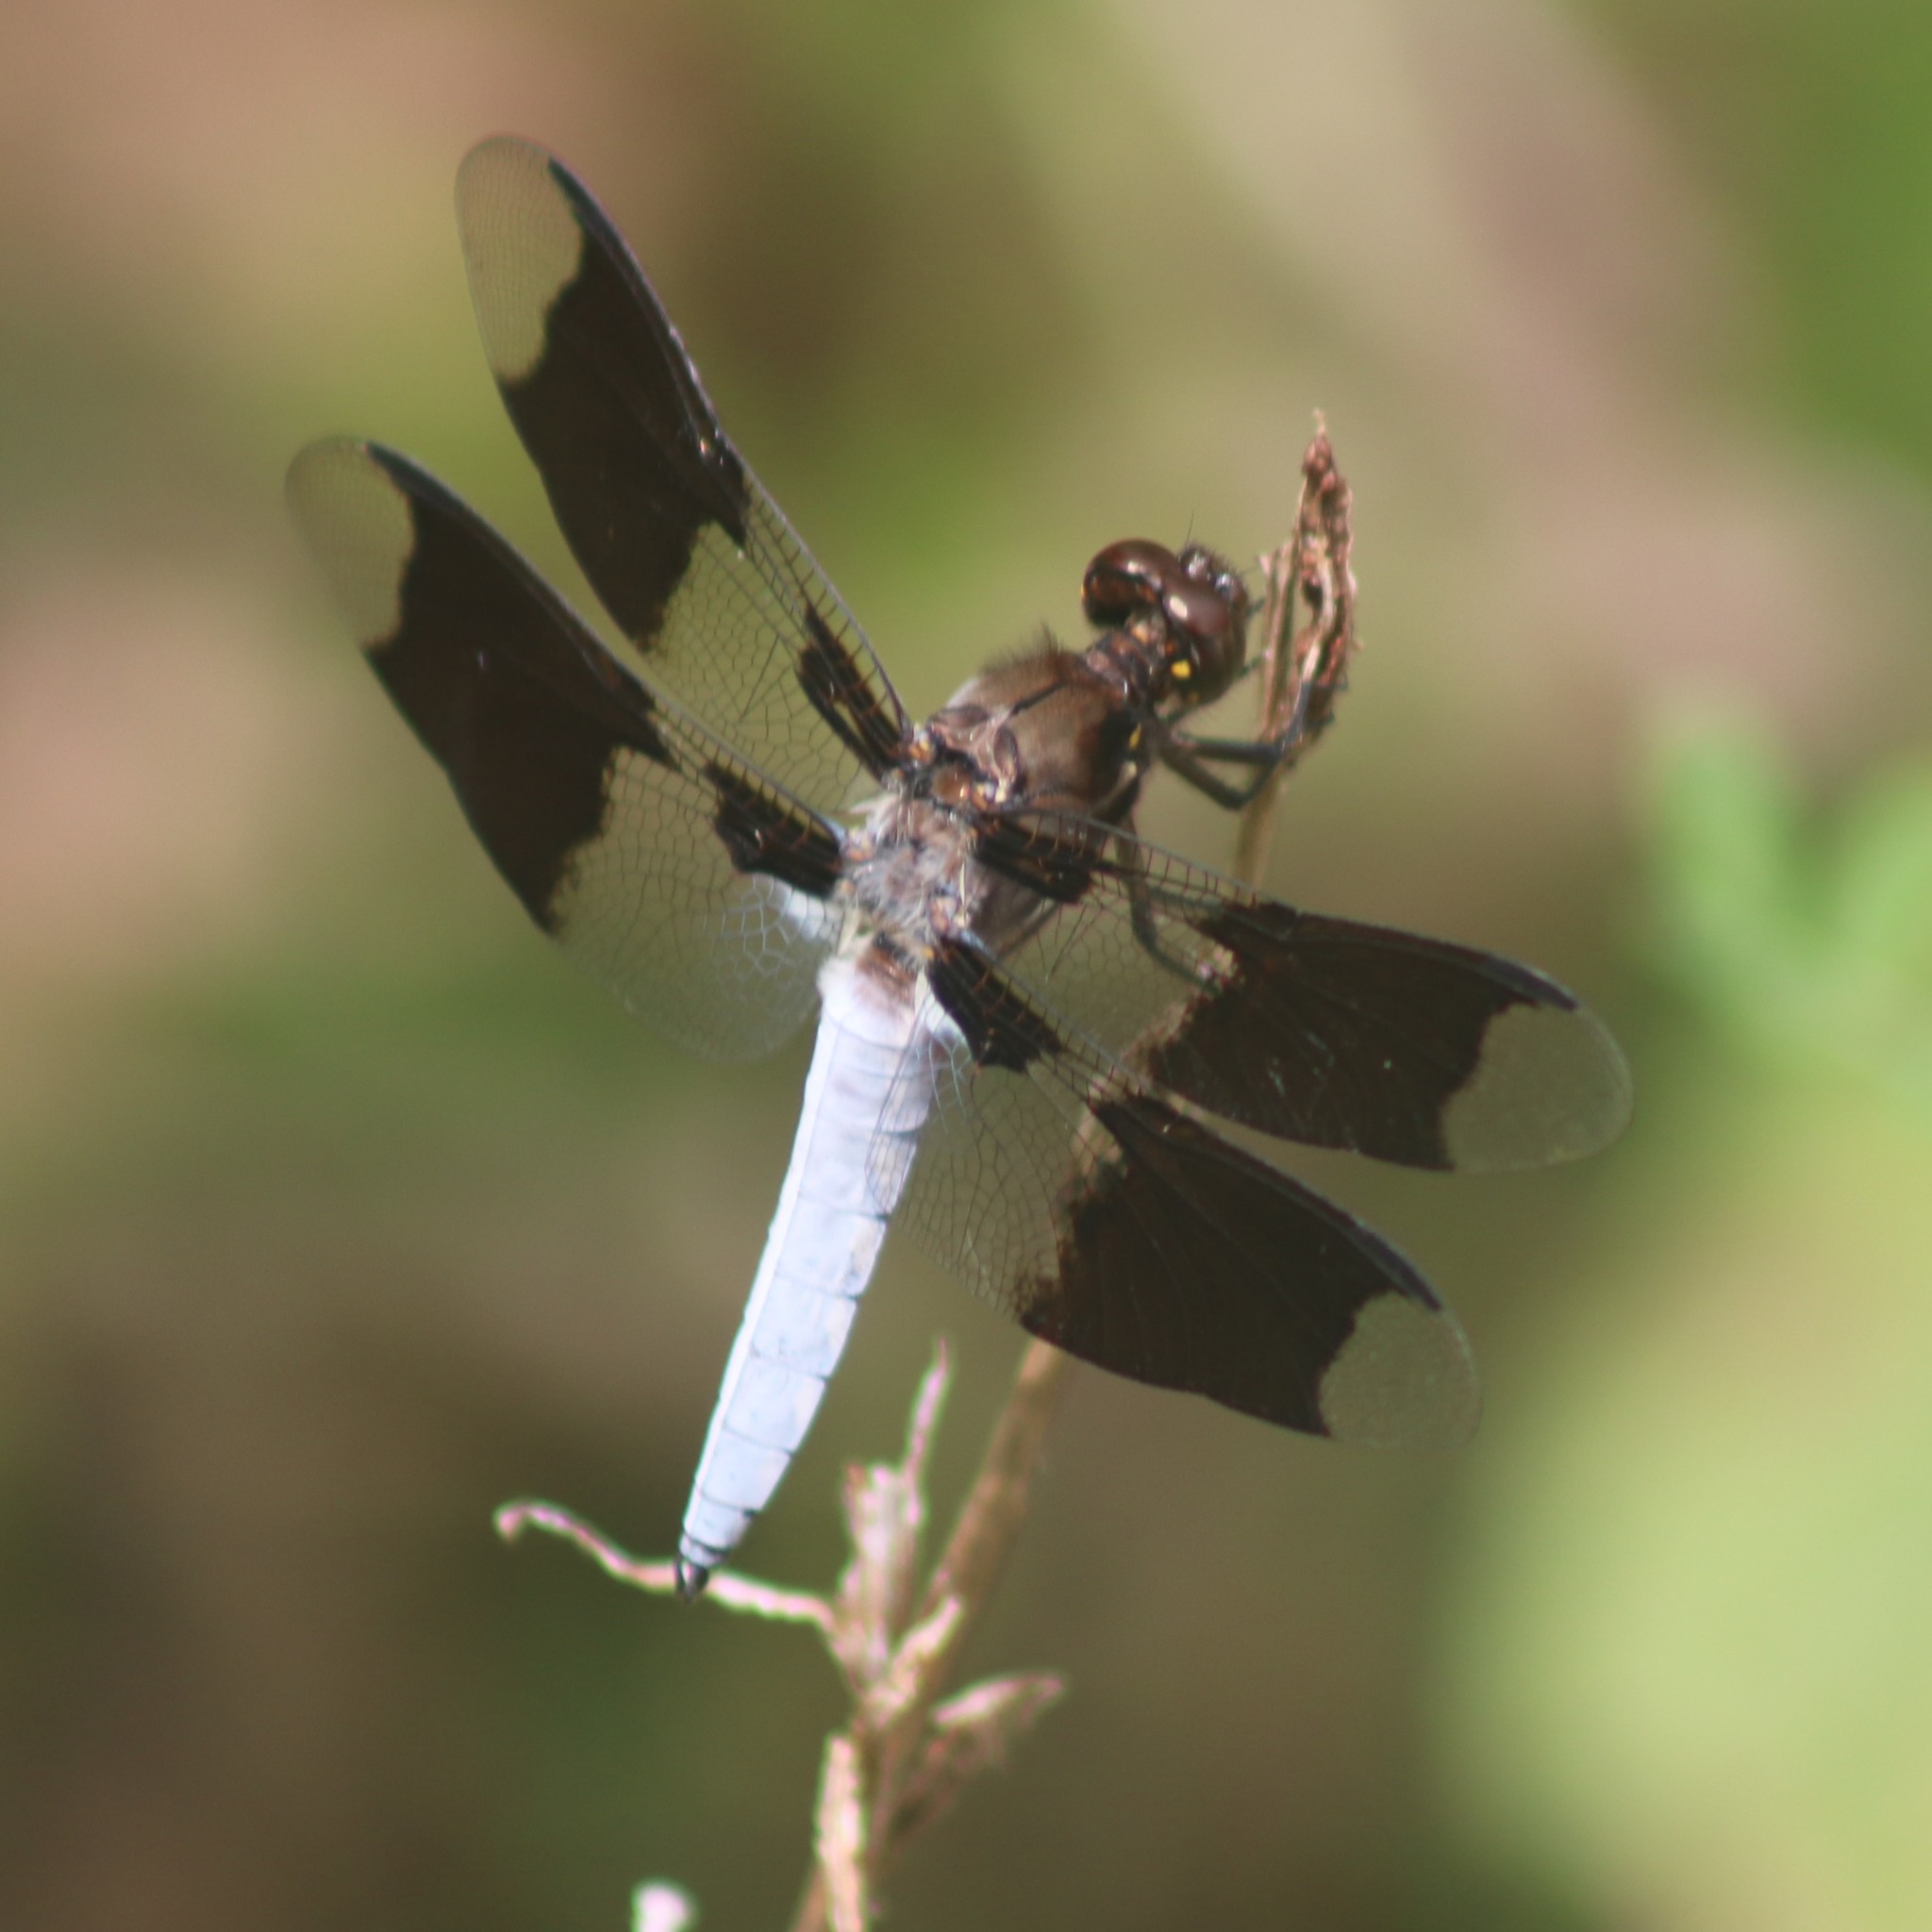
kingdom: Animalia
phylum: Arthropoda
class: Insecta
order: Odonata
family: Libellulidae
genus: Plathemis
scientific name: Plathemis lydia
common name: Common whitetail
